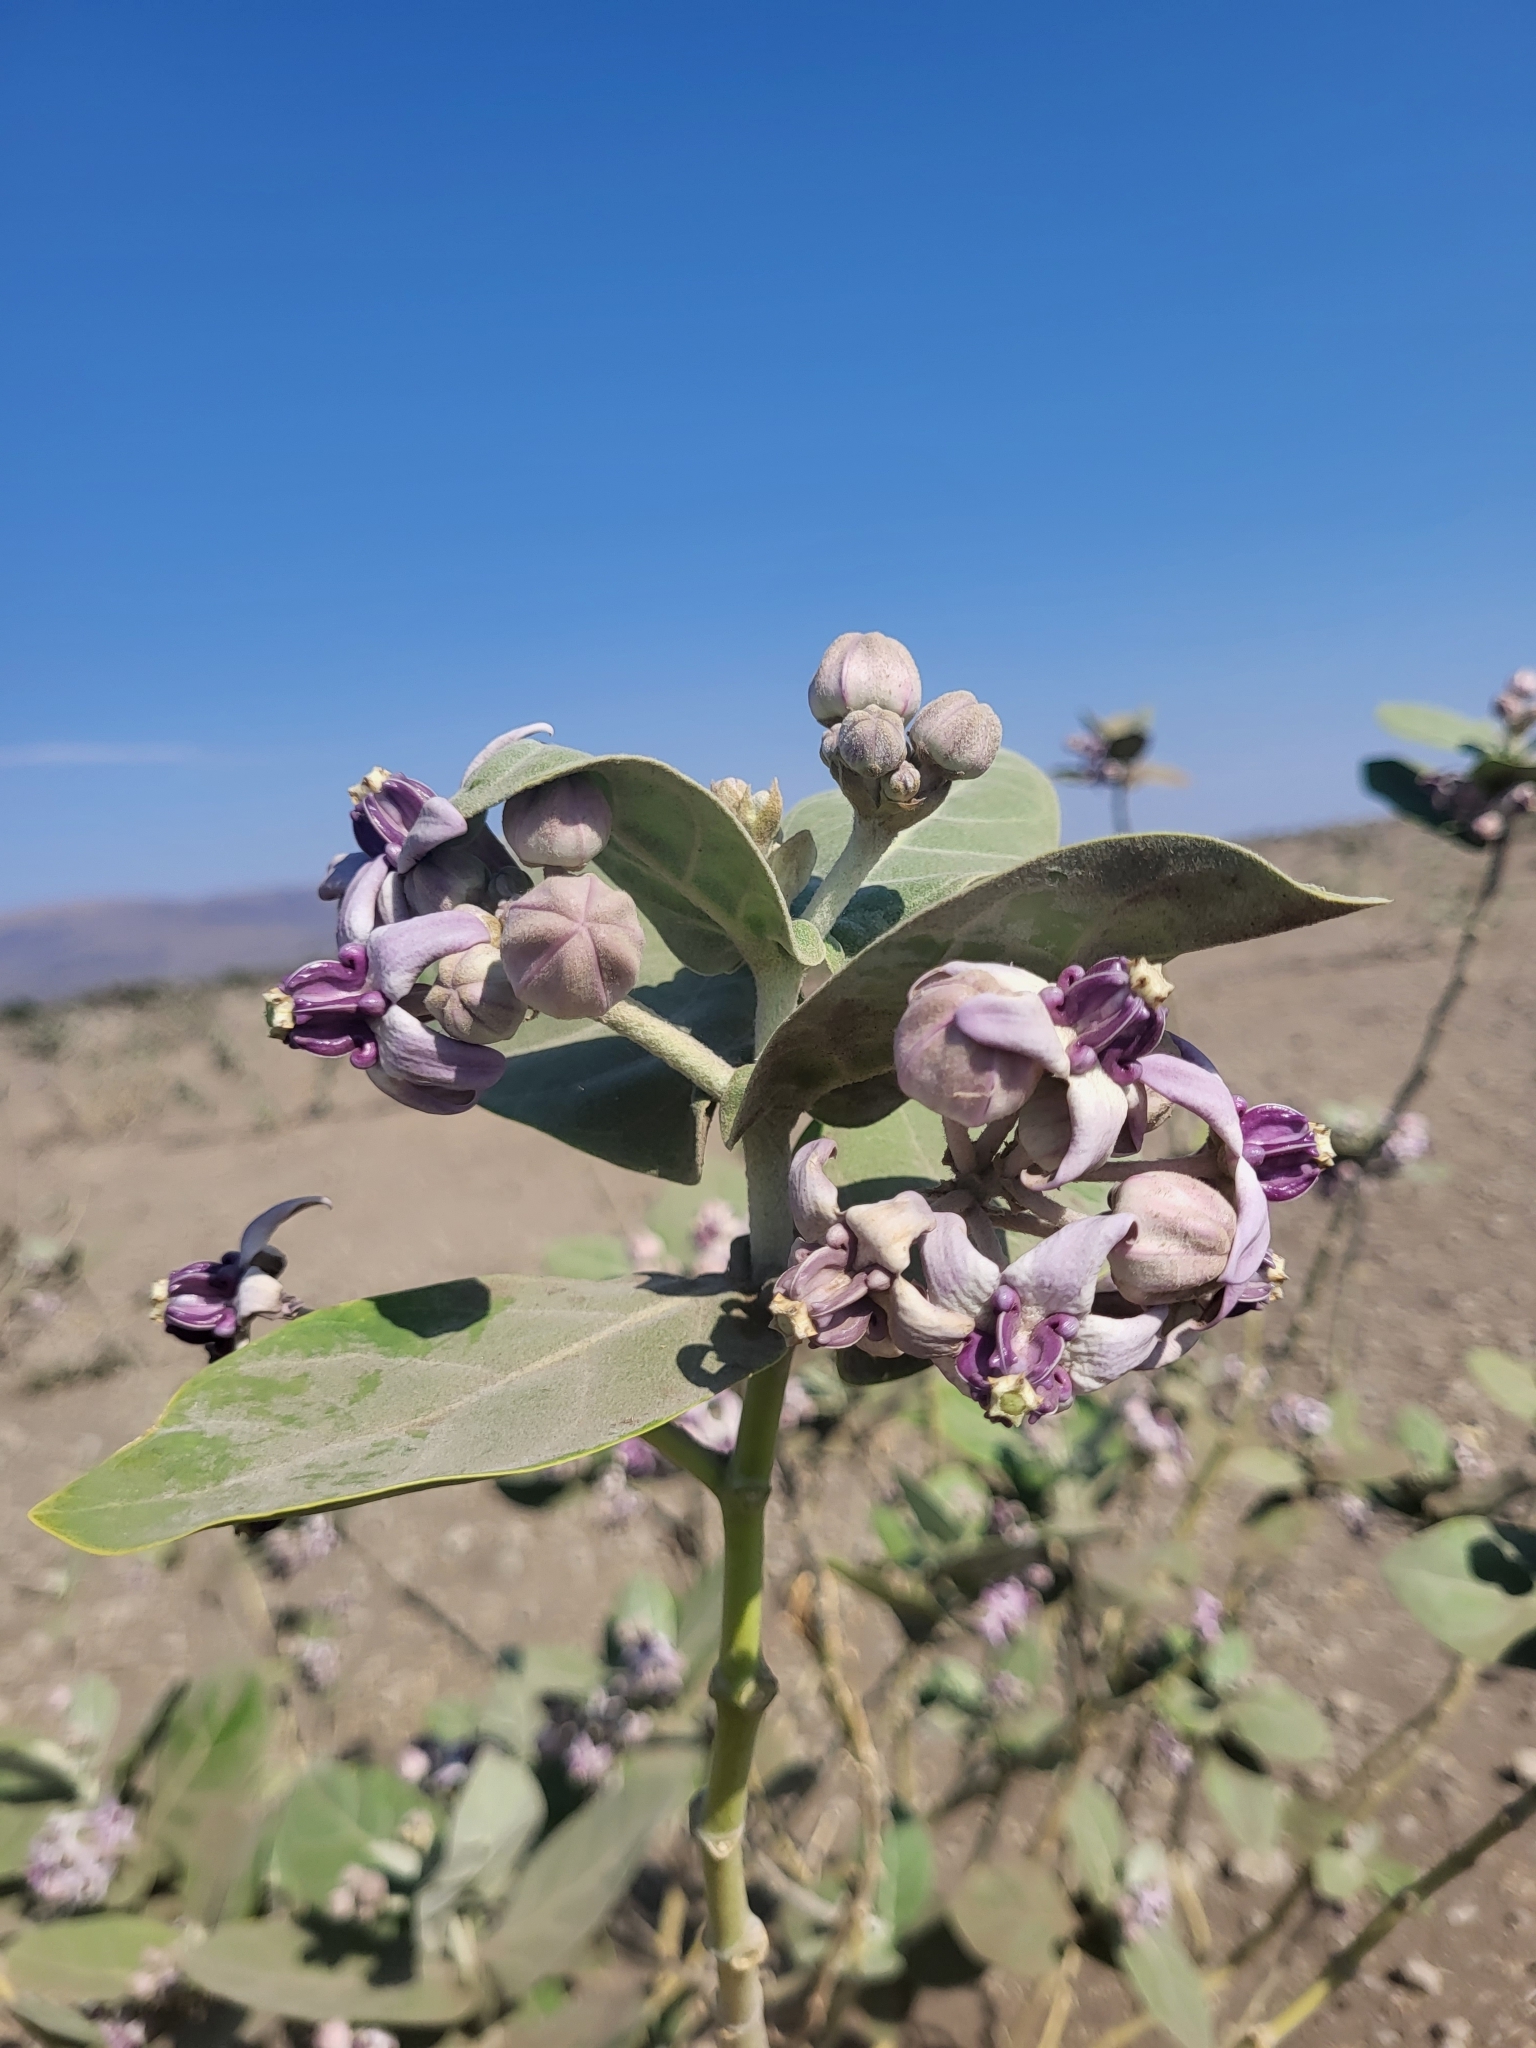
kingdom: Plantae
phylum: Tracheophyta
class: Magnoliopsida
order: Gentianales
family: Apocynaceae
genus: Calotropis
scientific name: Calotropis gigantea
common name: Crown flower
